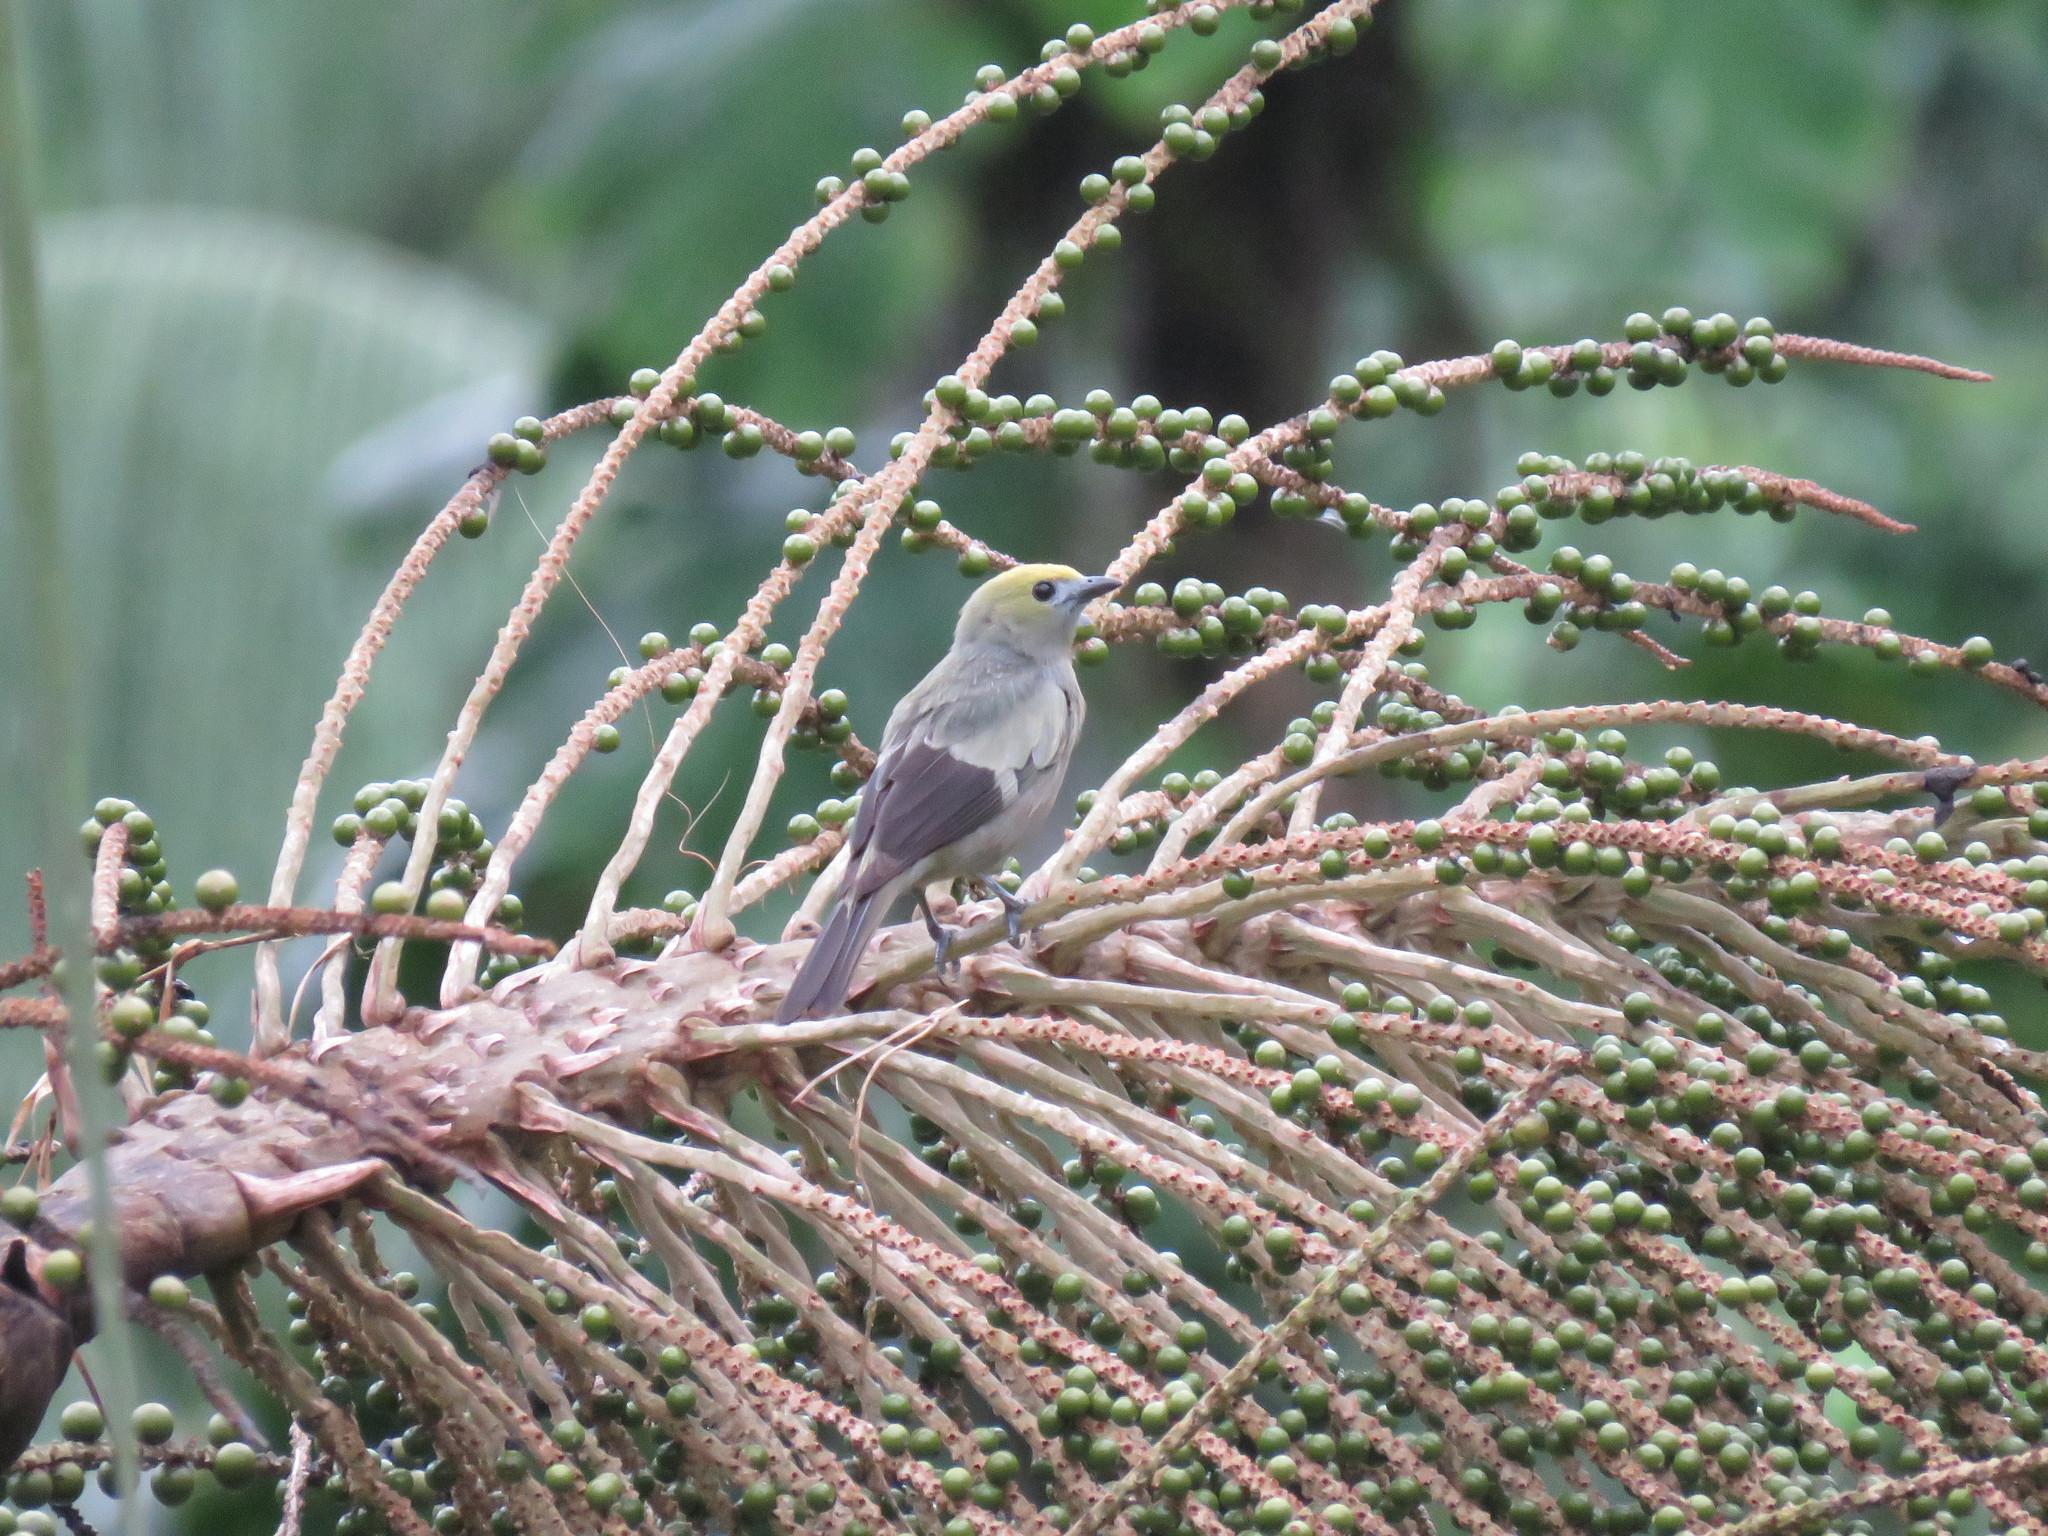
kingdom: Animalia
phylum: Chordata
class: Aves
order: Passeriformes
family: Thraupidae
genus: Thraupis
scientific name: Thraupis palmarum
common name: Palm tanager
